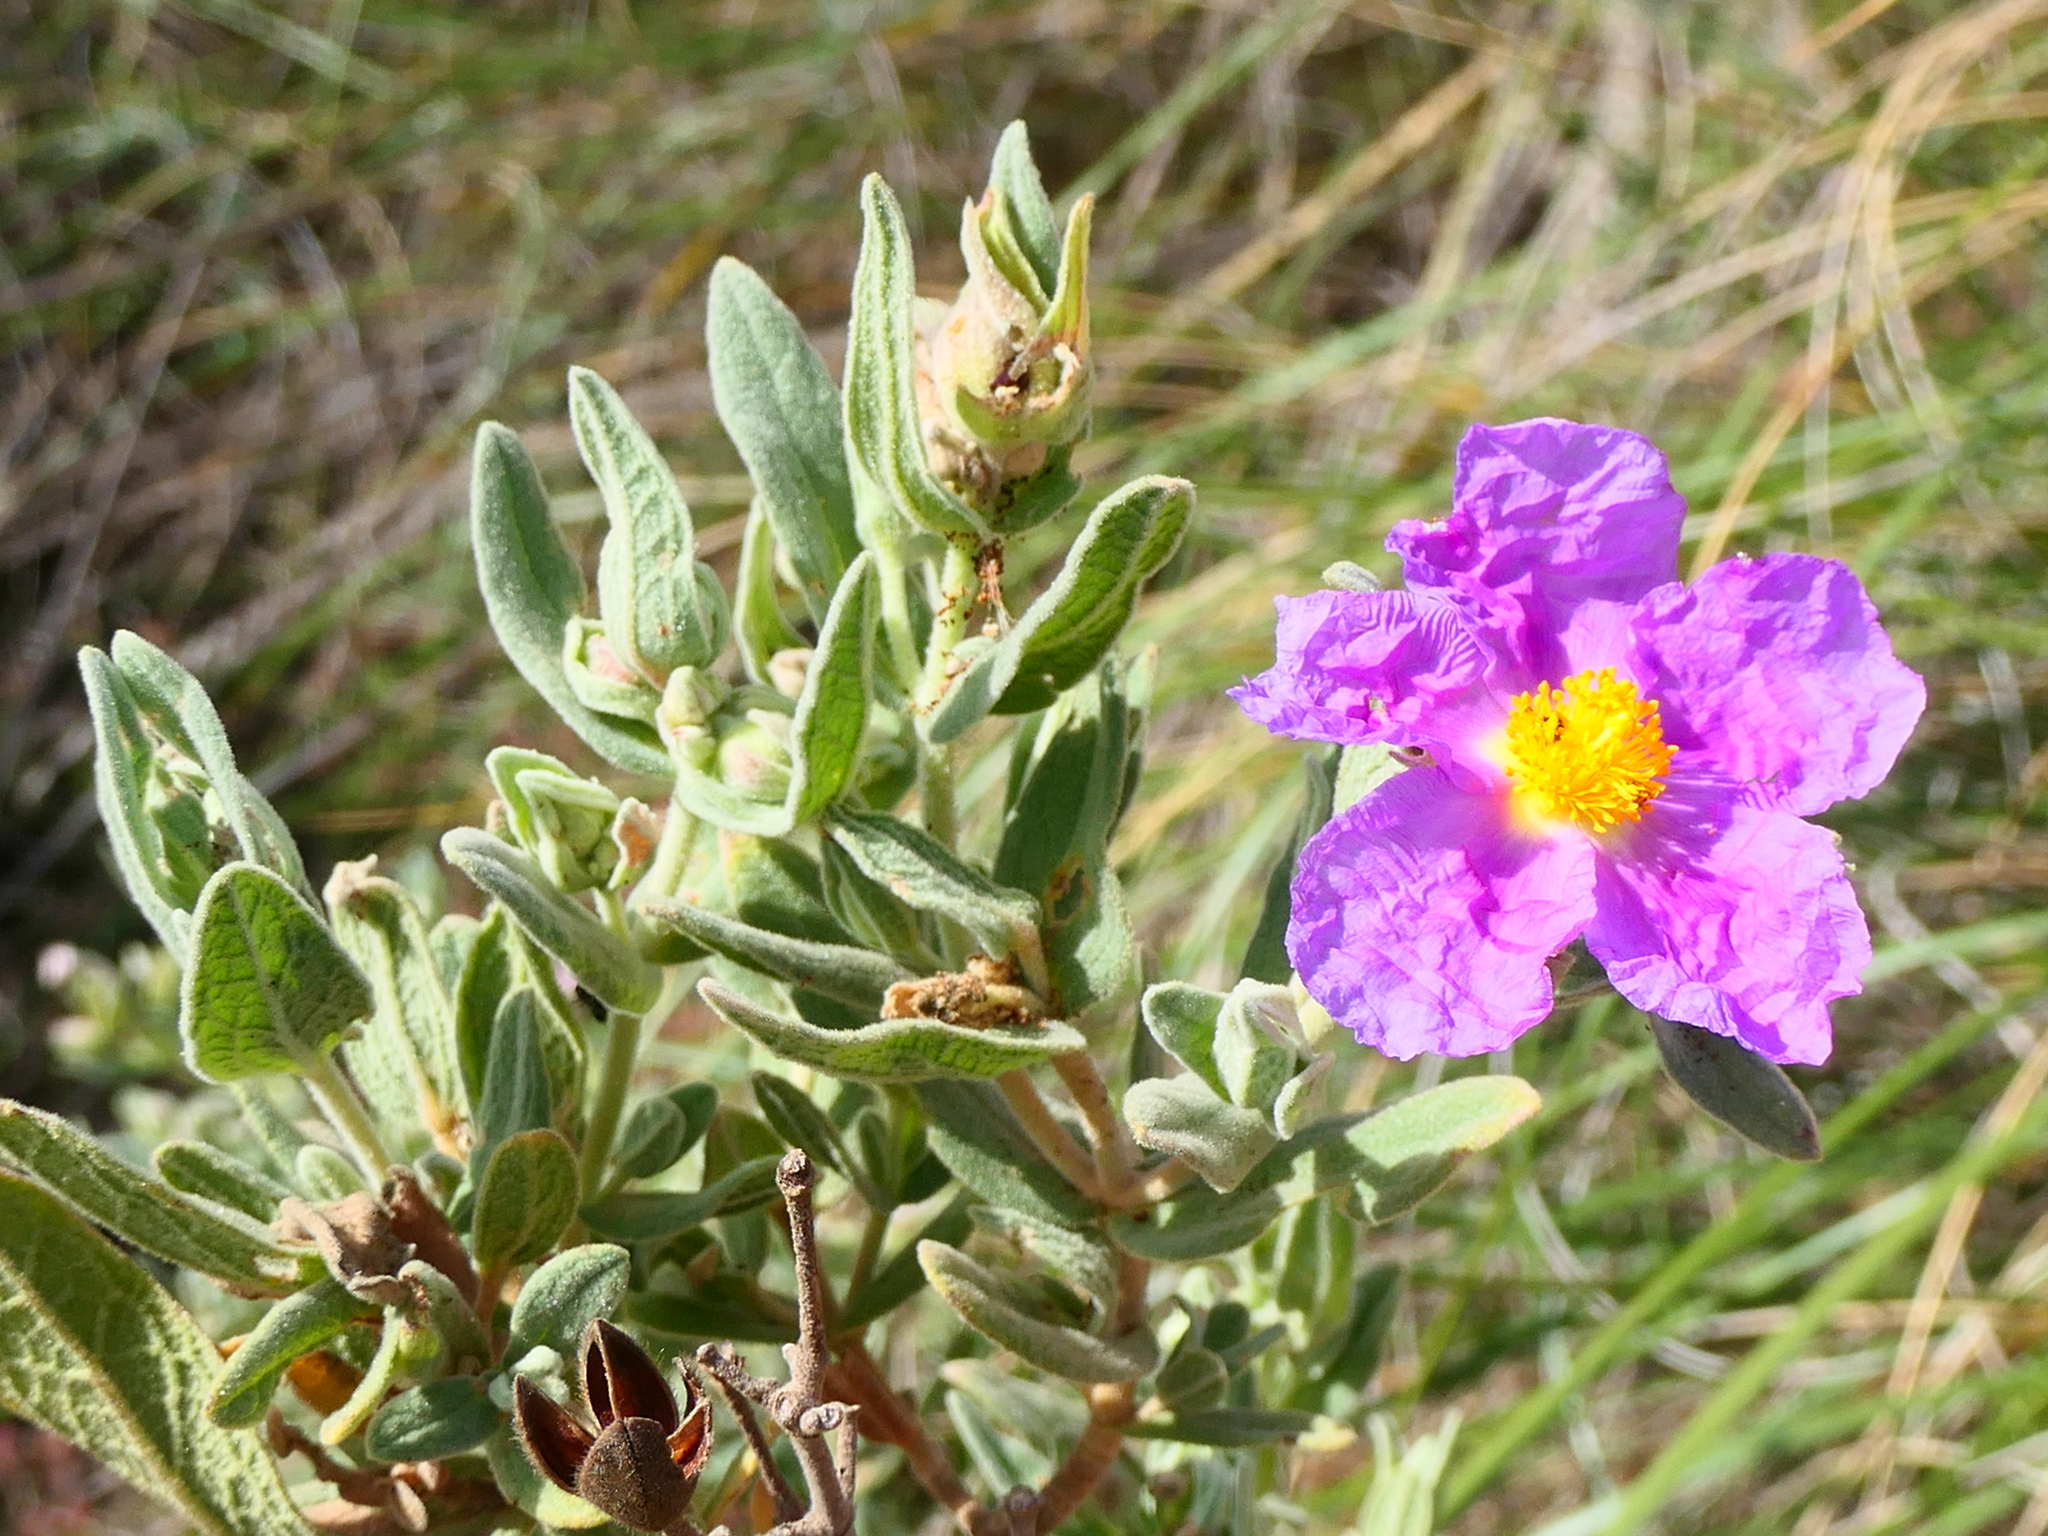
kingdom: Plantae
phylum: Tracheophyta
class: Magnoliopsida
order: Malvales
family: Cistaceae
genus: Cistus
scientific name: Cistus albidus
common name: White-leaf rock-rose
